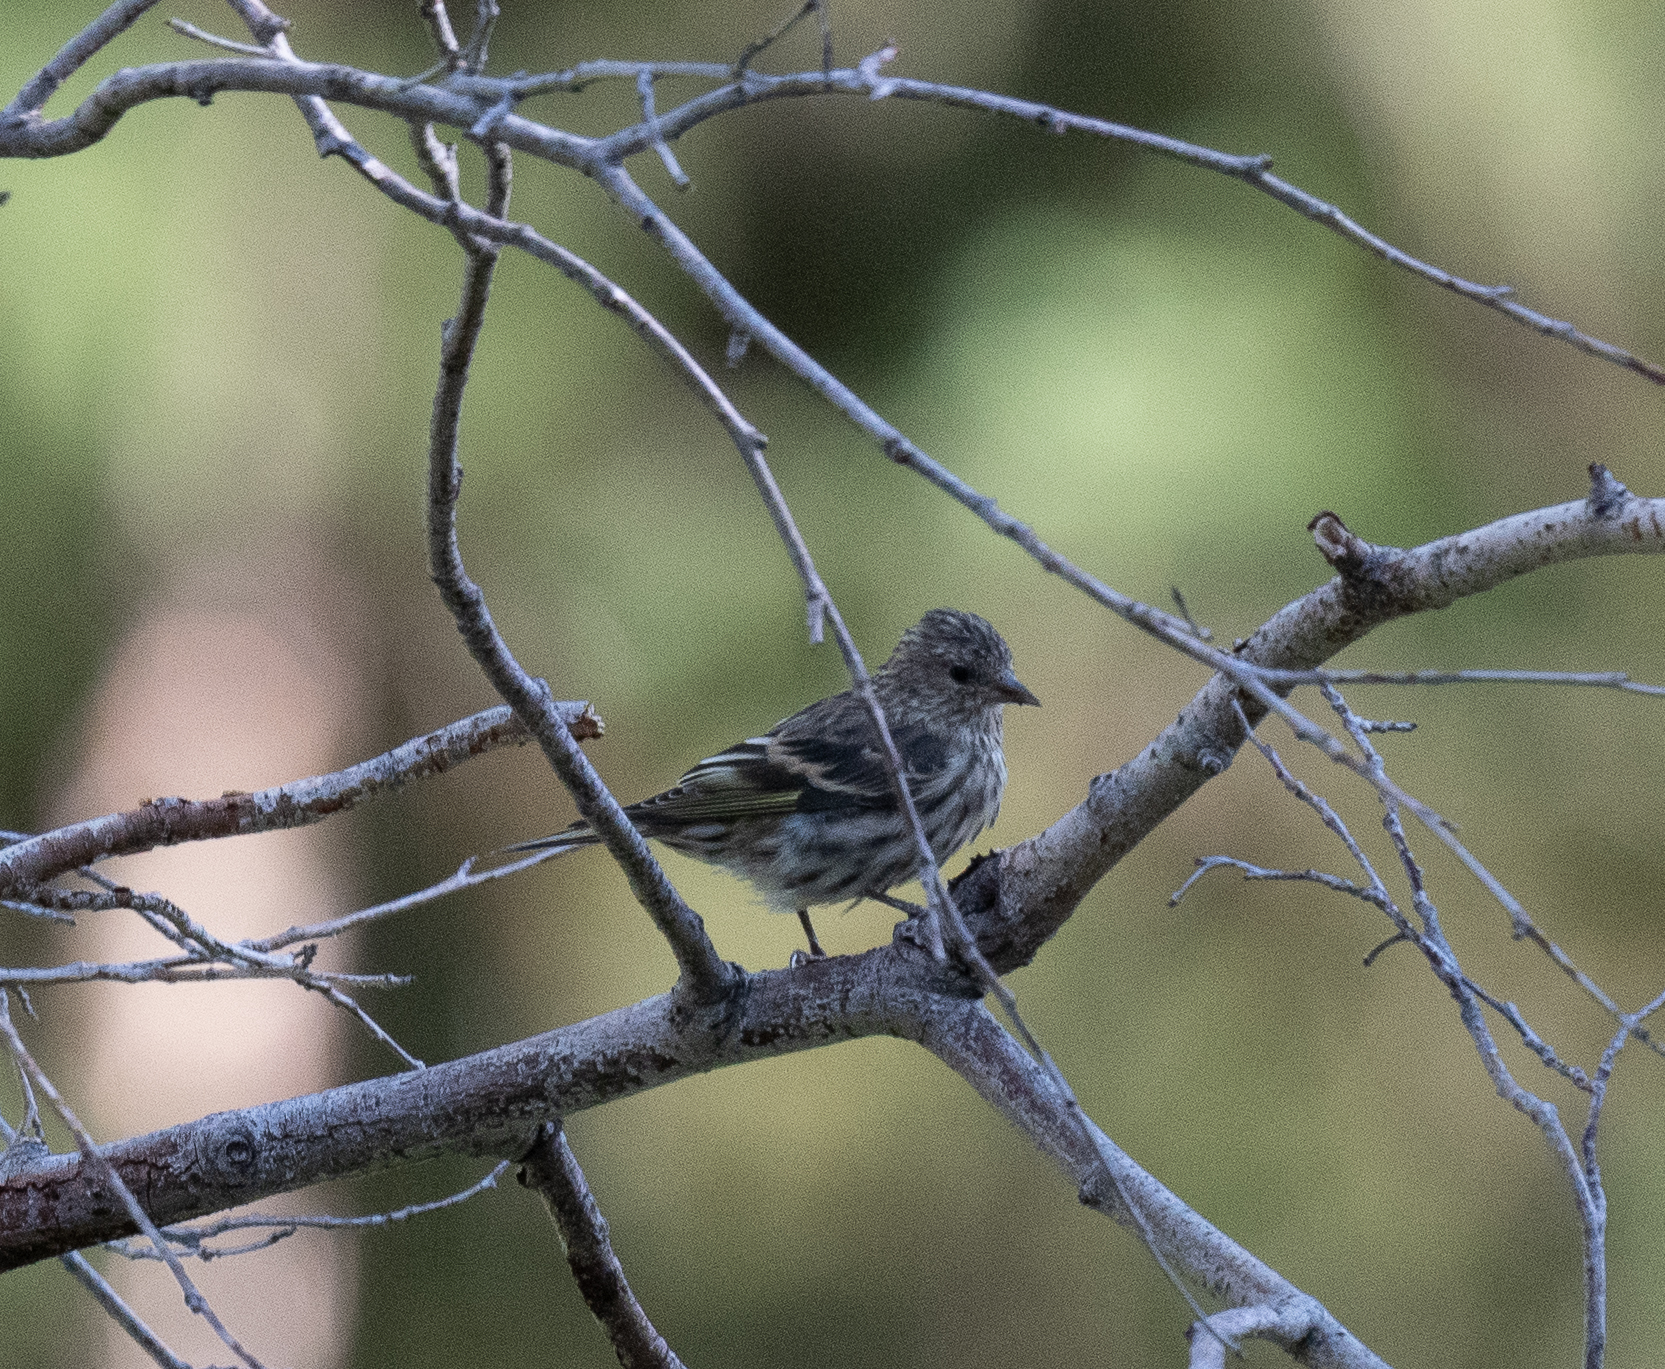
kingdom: Animalia
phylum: Chordata
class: Aves
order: Passeriformes
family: Fringillidae
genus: Spinus
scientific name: Spinus pinus
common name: Pine siskin
